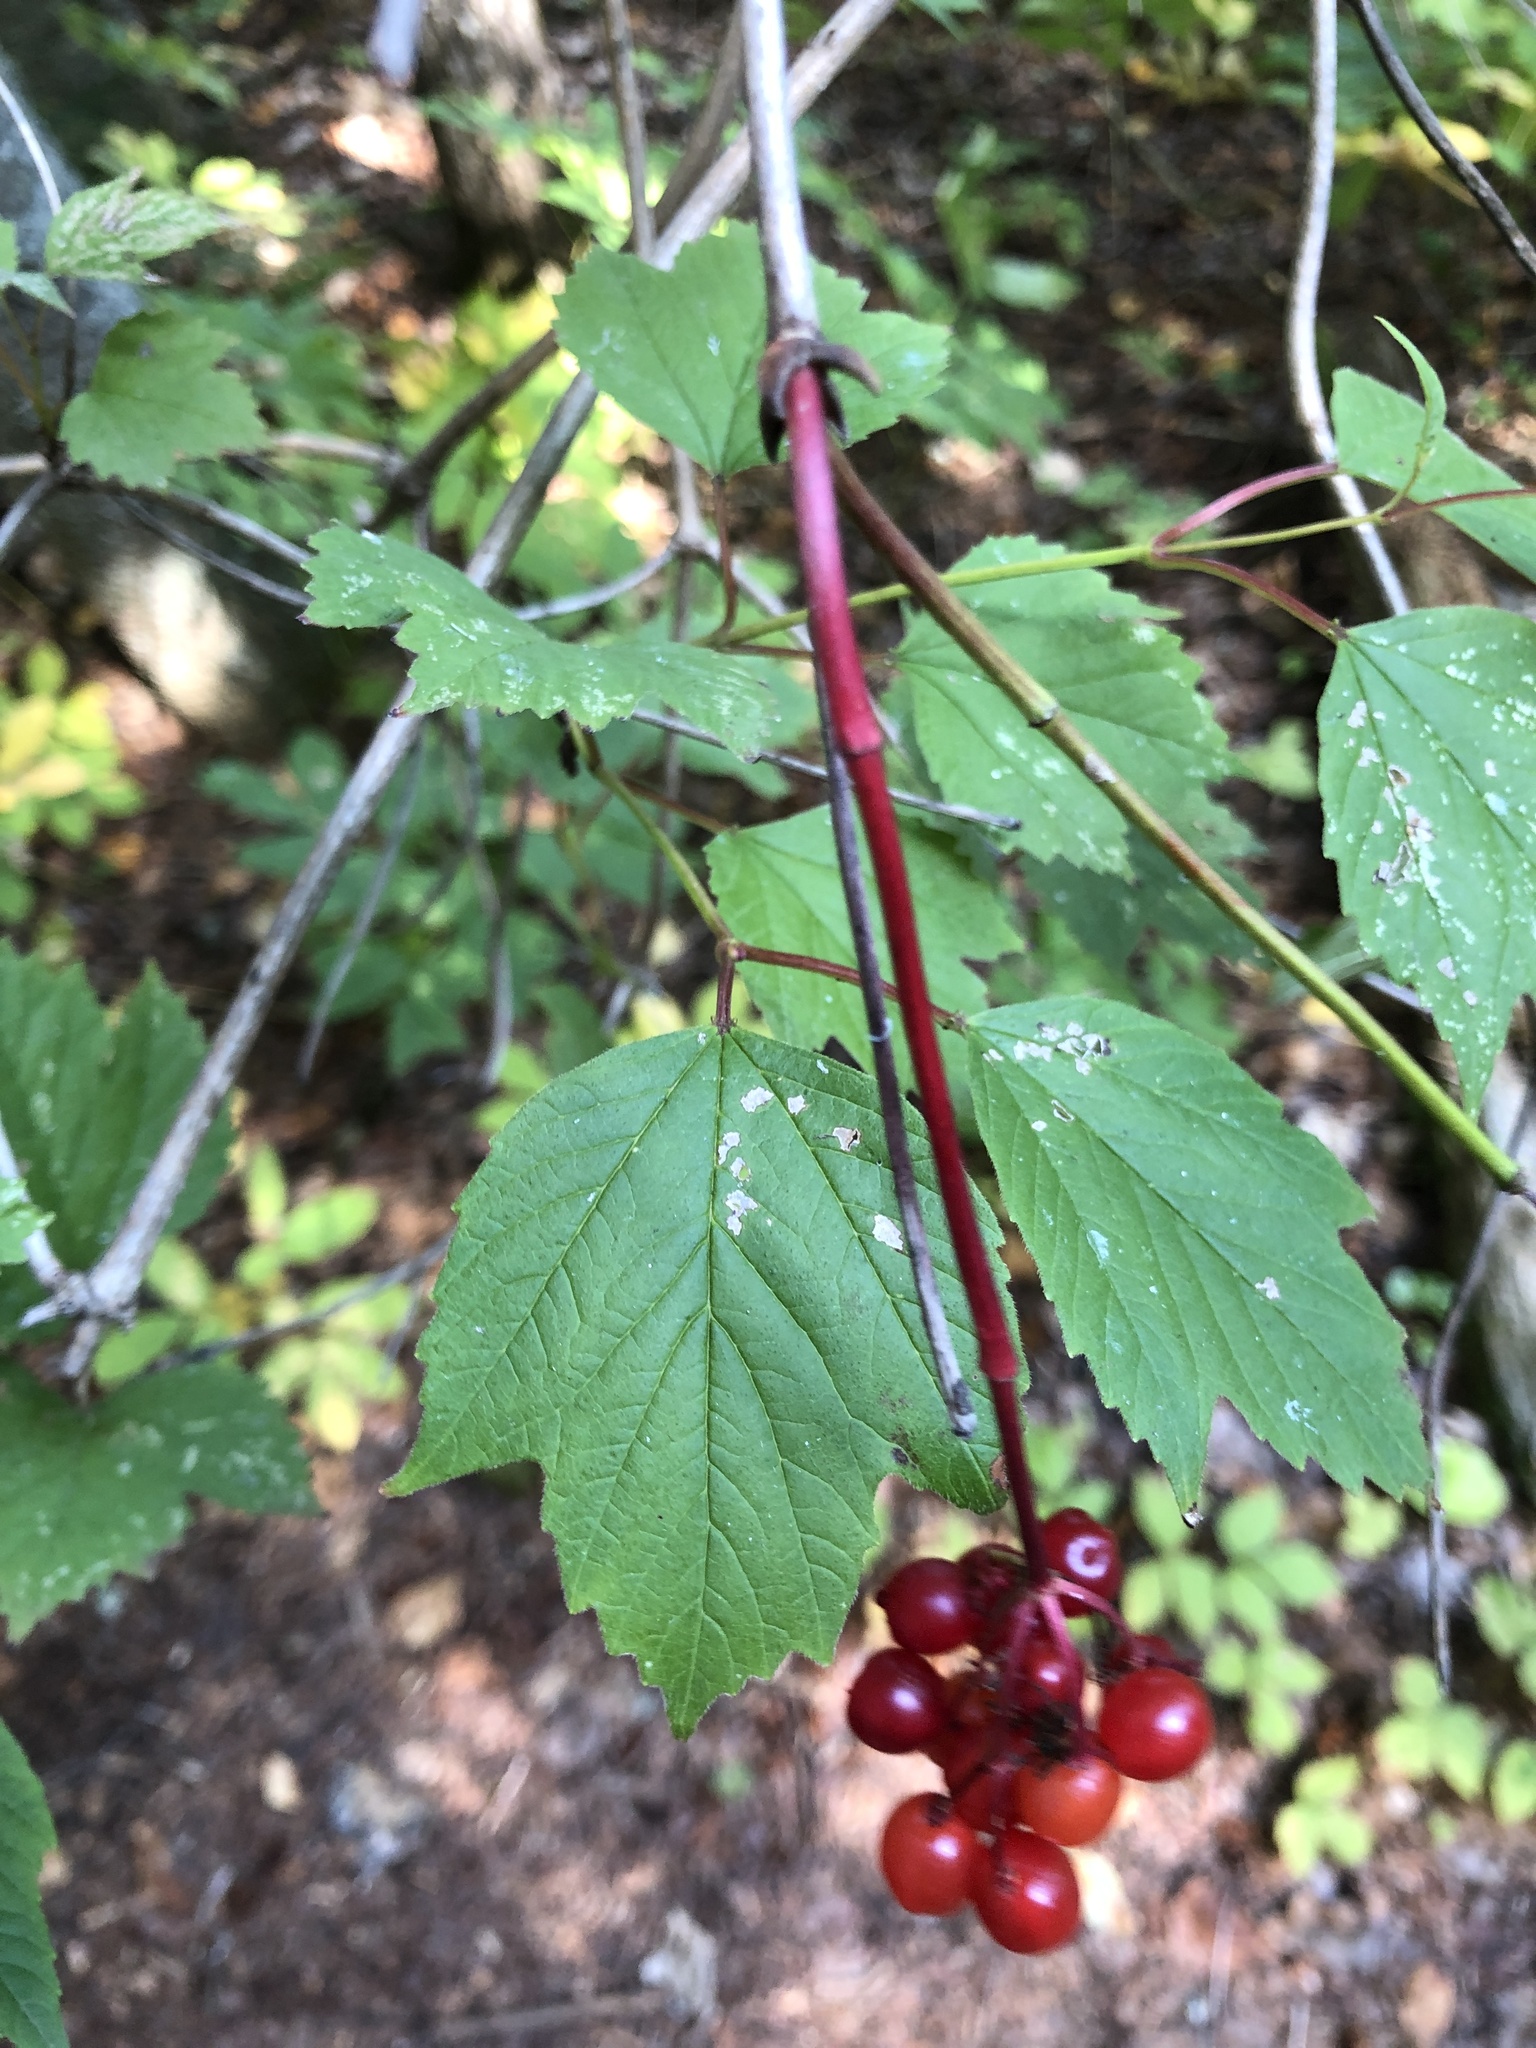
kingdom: Plantae
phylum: Tracheophyta
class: Magnoliopsida
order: Dipsacales
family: Viburnaceae
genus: Viburnum
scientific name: Viburnum opulus
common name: Guelder-rose
